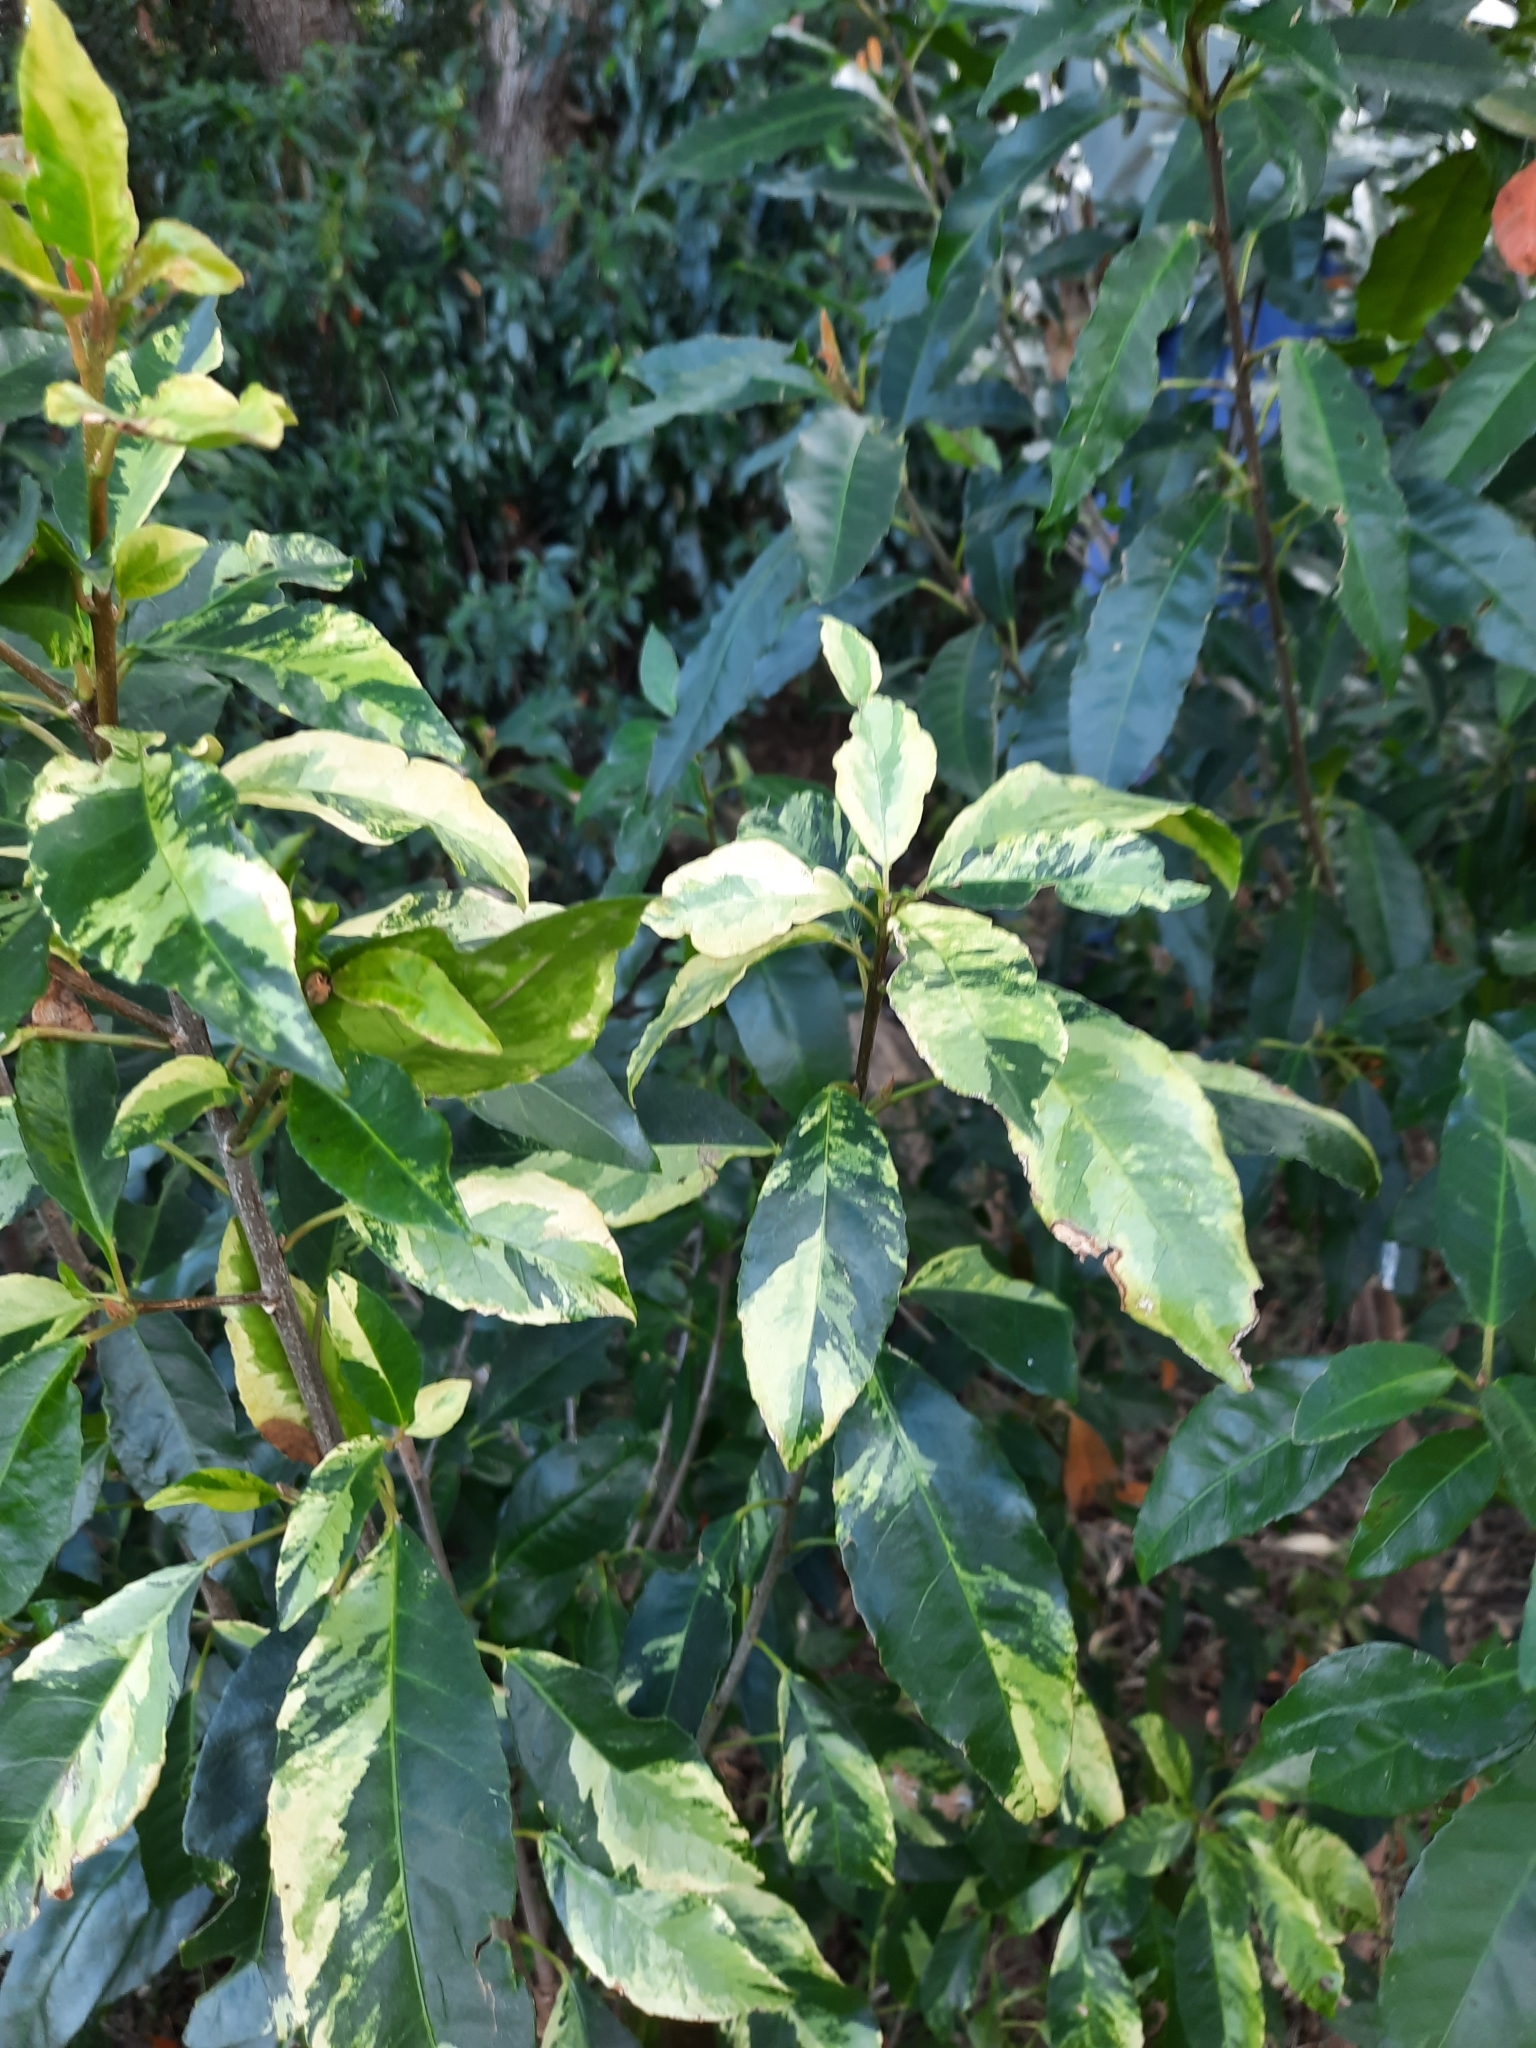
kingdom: Plantae
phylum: Tracheophyta
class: Magnoliopsida
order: Malpighiales
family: Euphorbiaceae
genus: Croton
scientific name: Croton verreauxii
